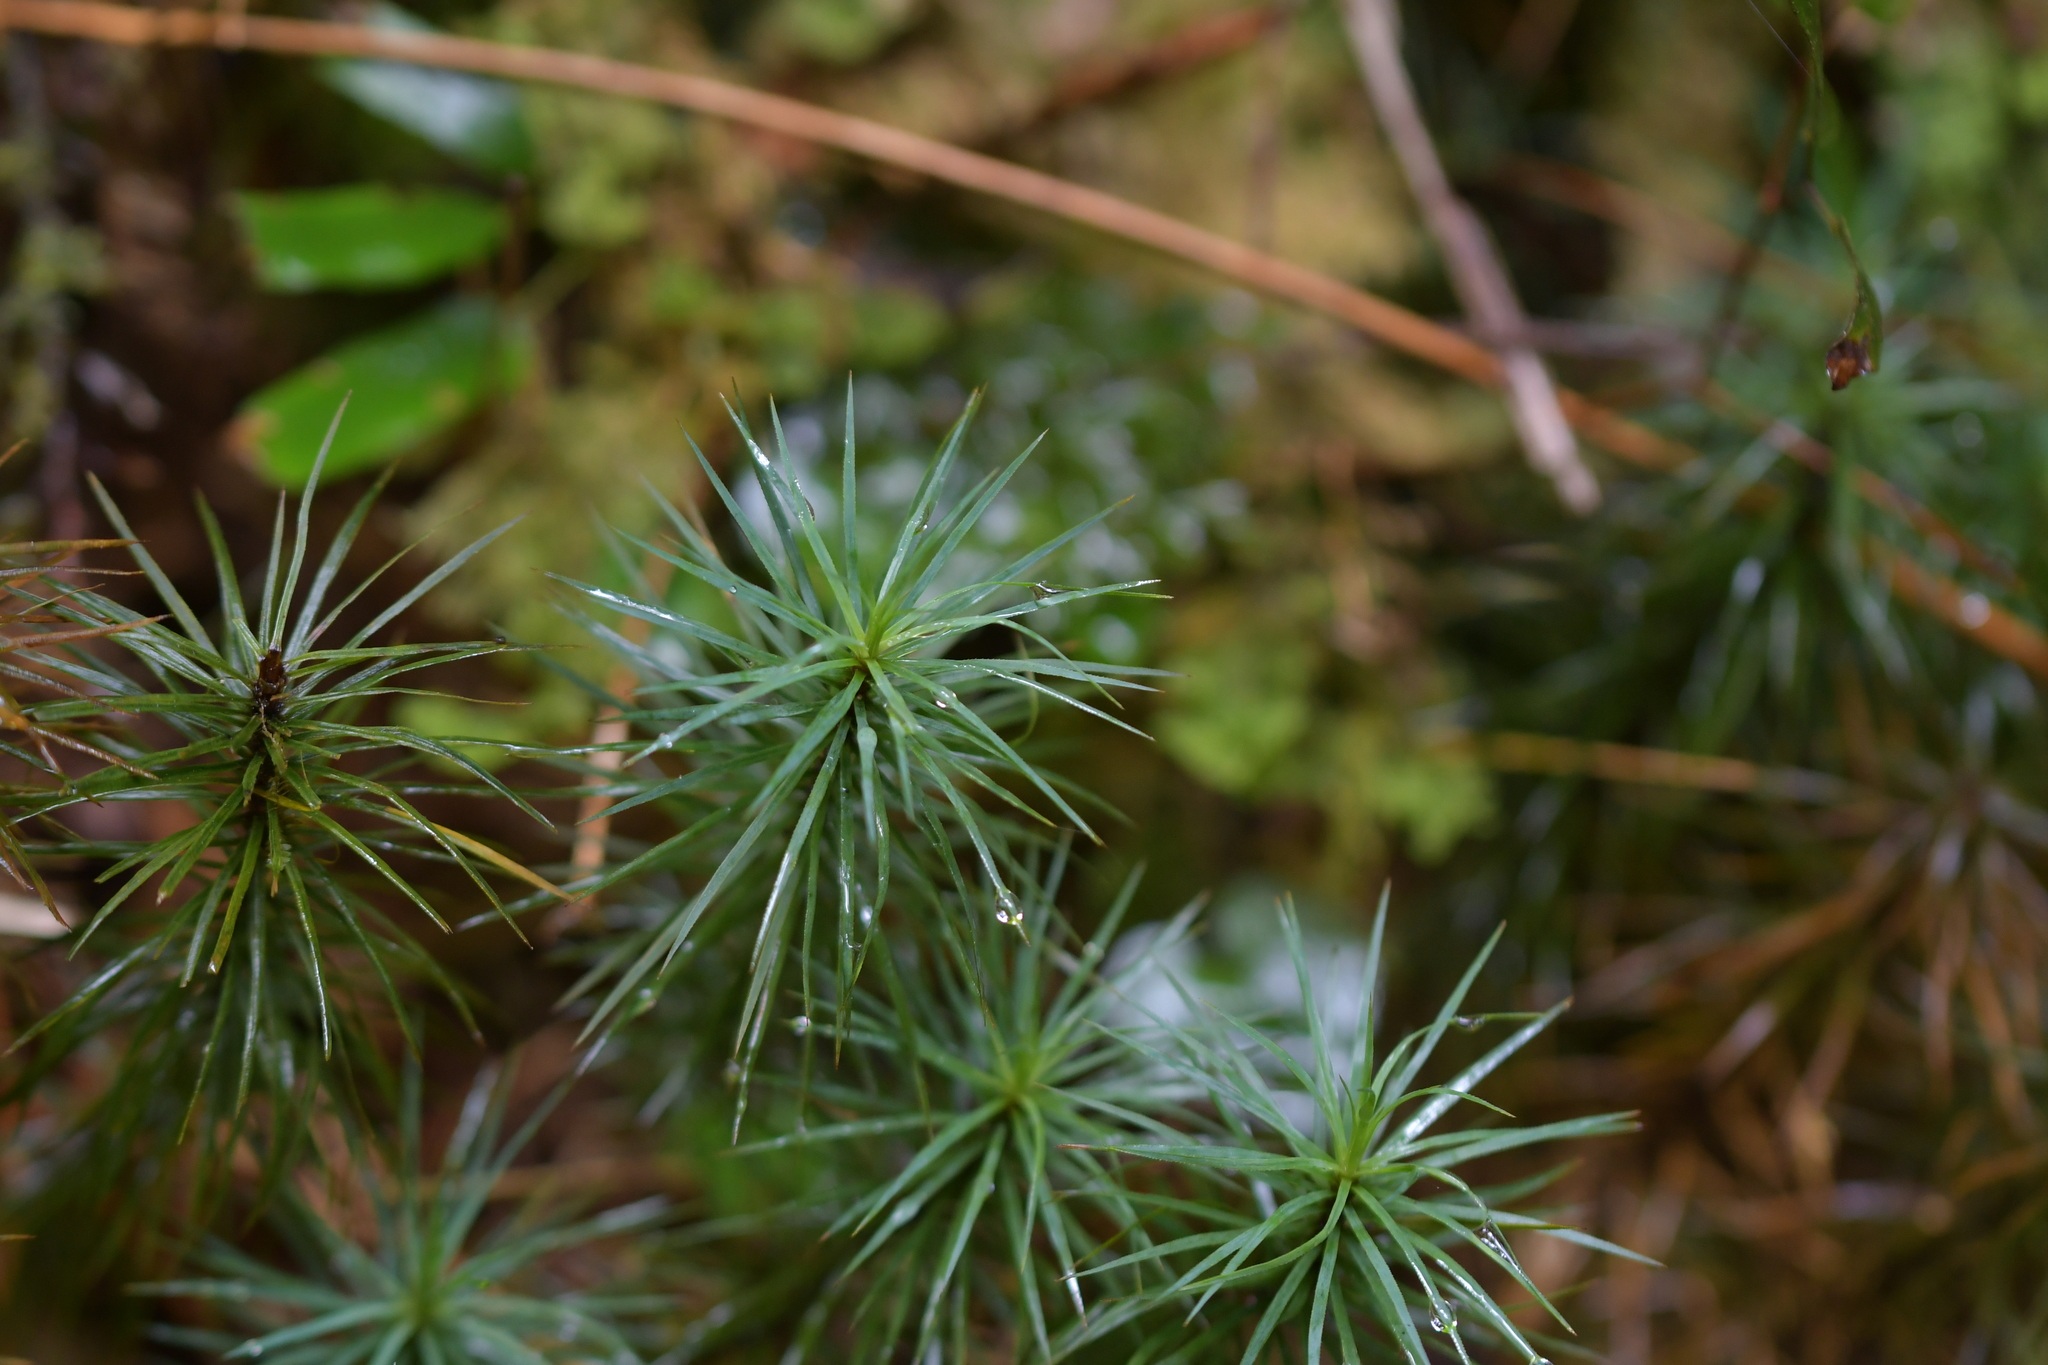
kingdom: Plantae
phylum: Bryophyta
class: Polytrichopsida
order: Polytrichales
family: Polytrichaceae
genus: Dawsonia
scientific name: Dawsonia superba
